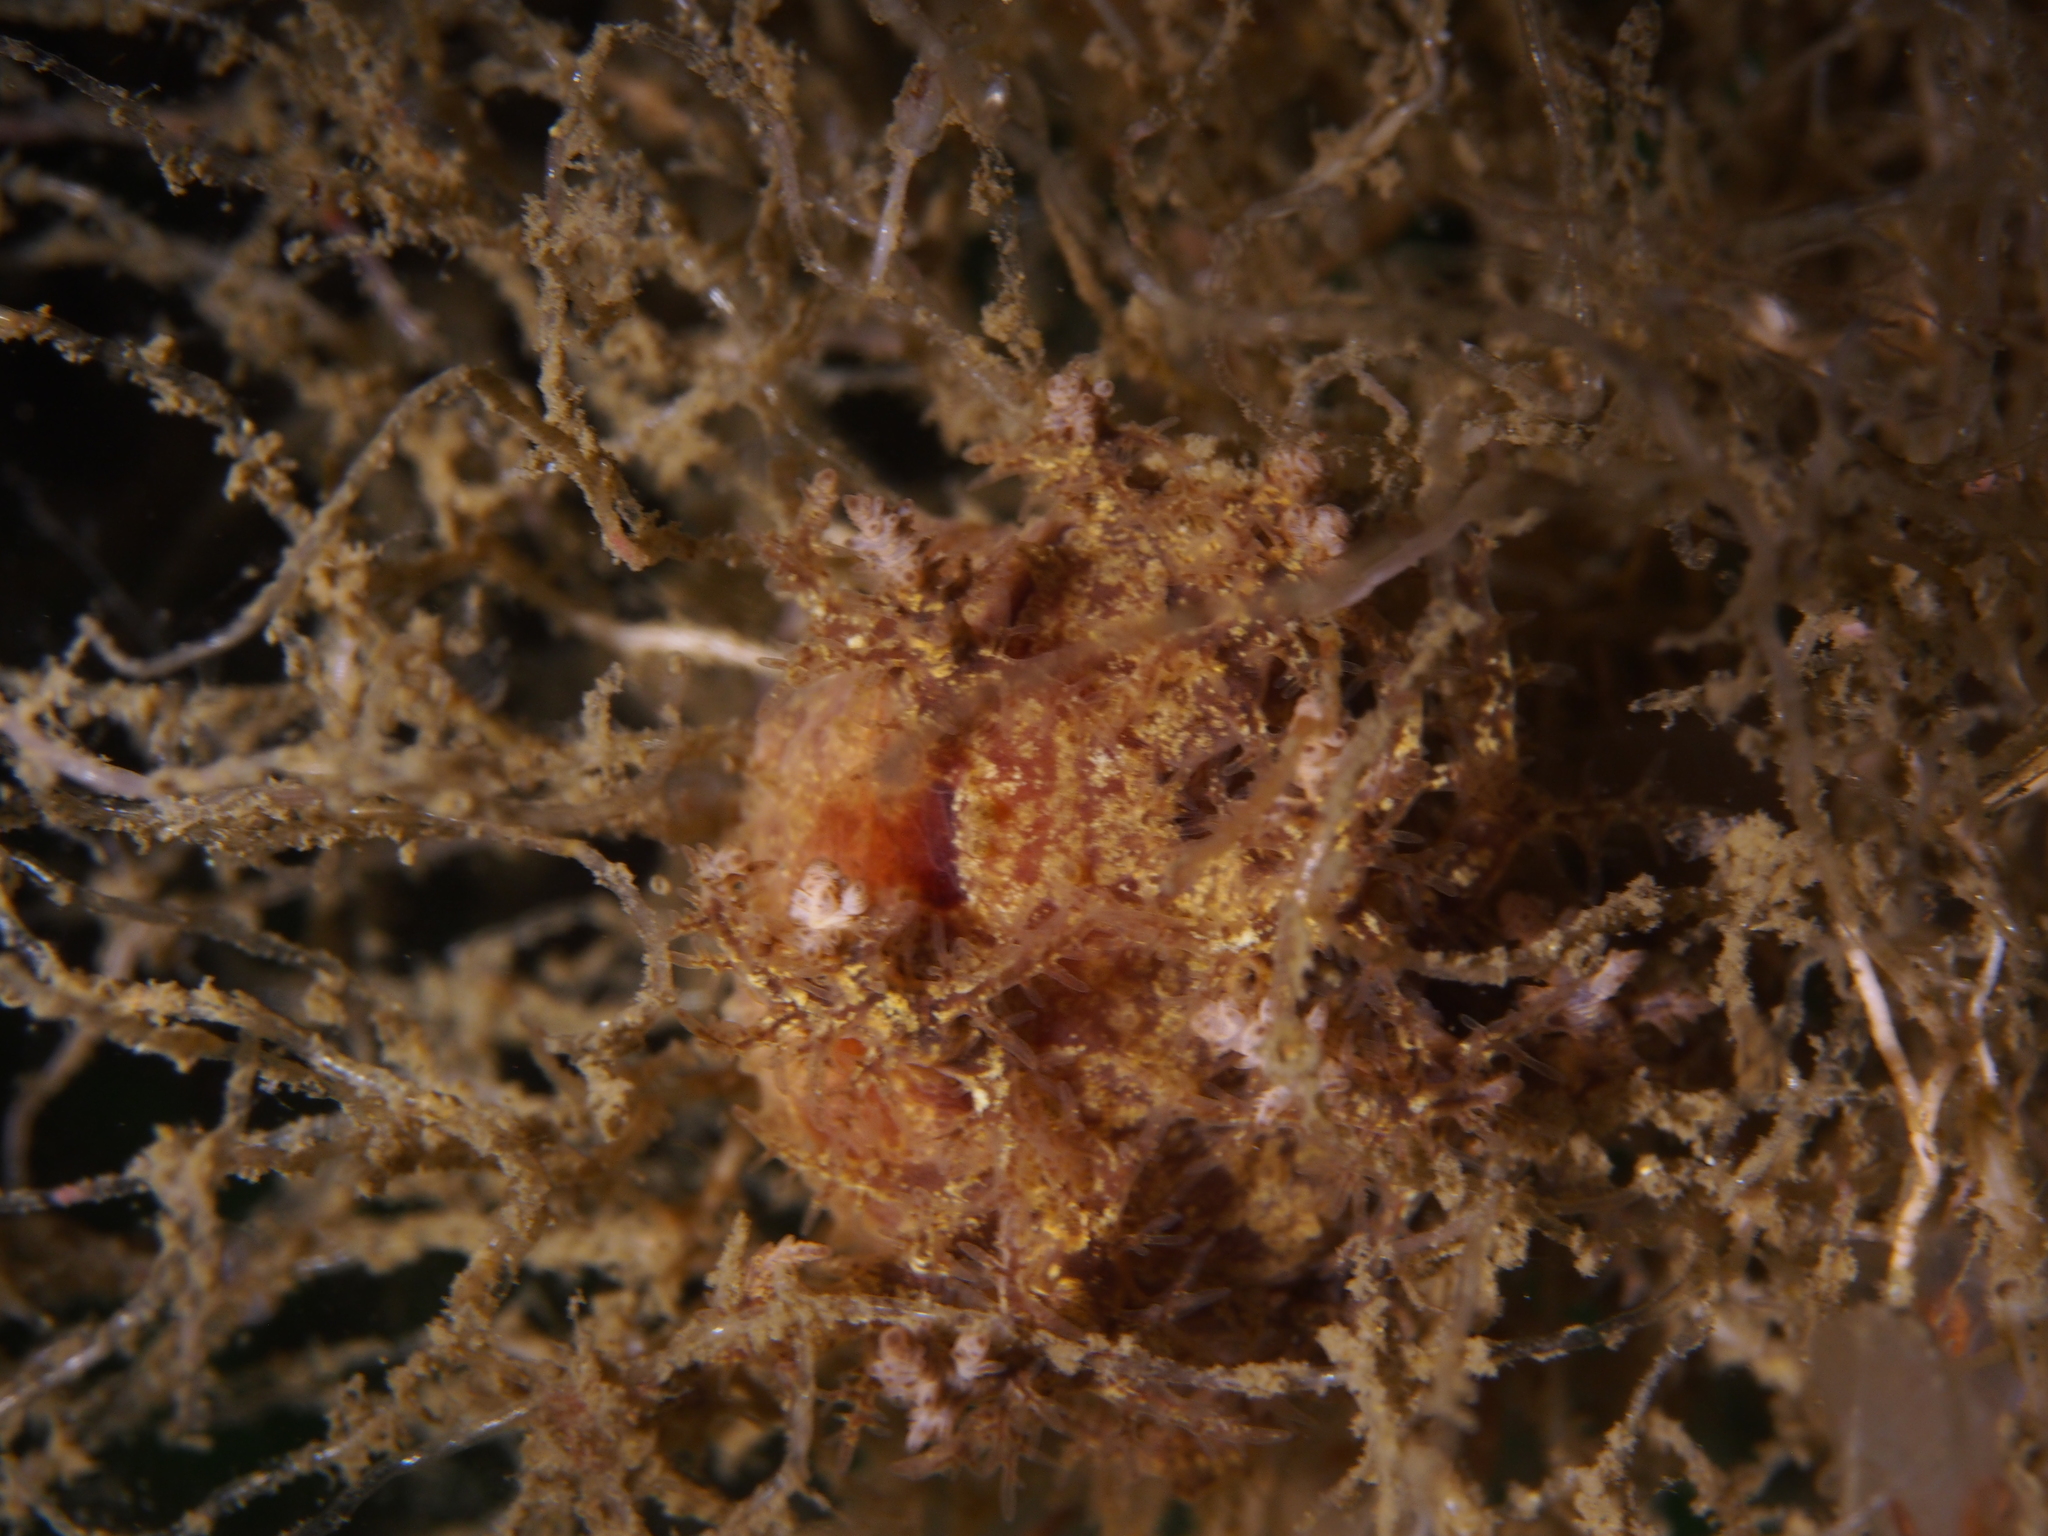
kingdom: Animalia
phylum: Mollusca
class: Gastropoda
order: Nudibranchia
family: Dendronotidae
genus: Dendronotus
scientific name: Dendronotus europaeus
